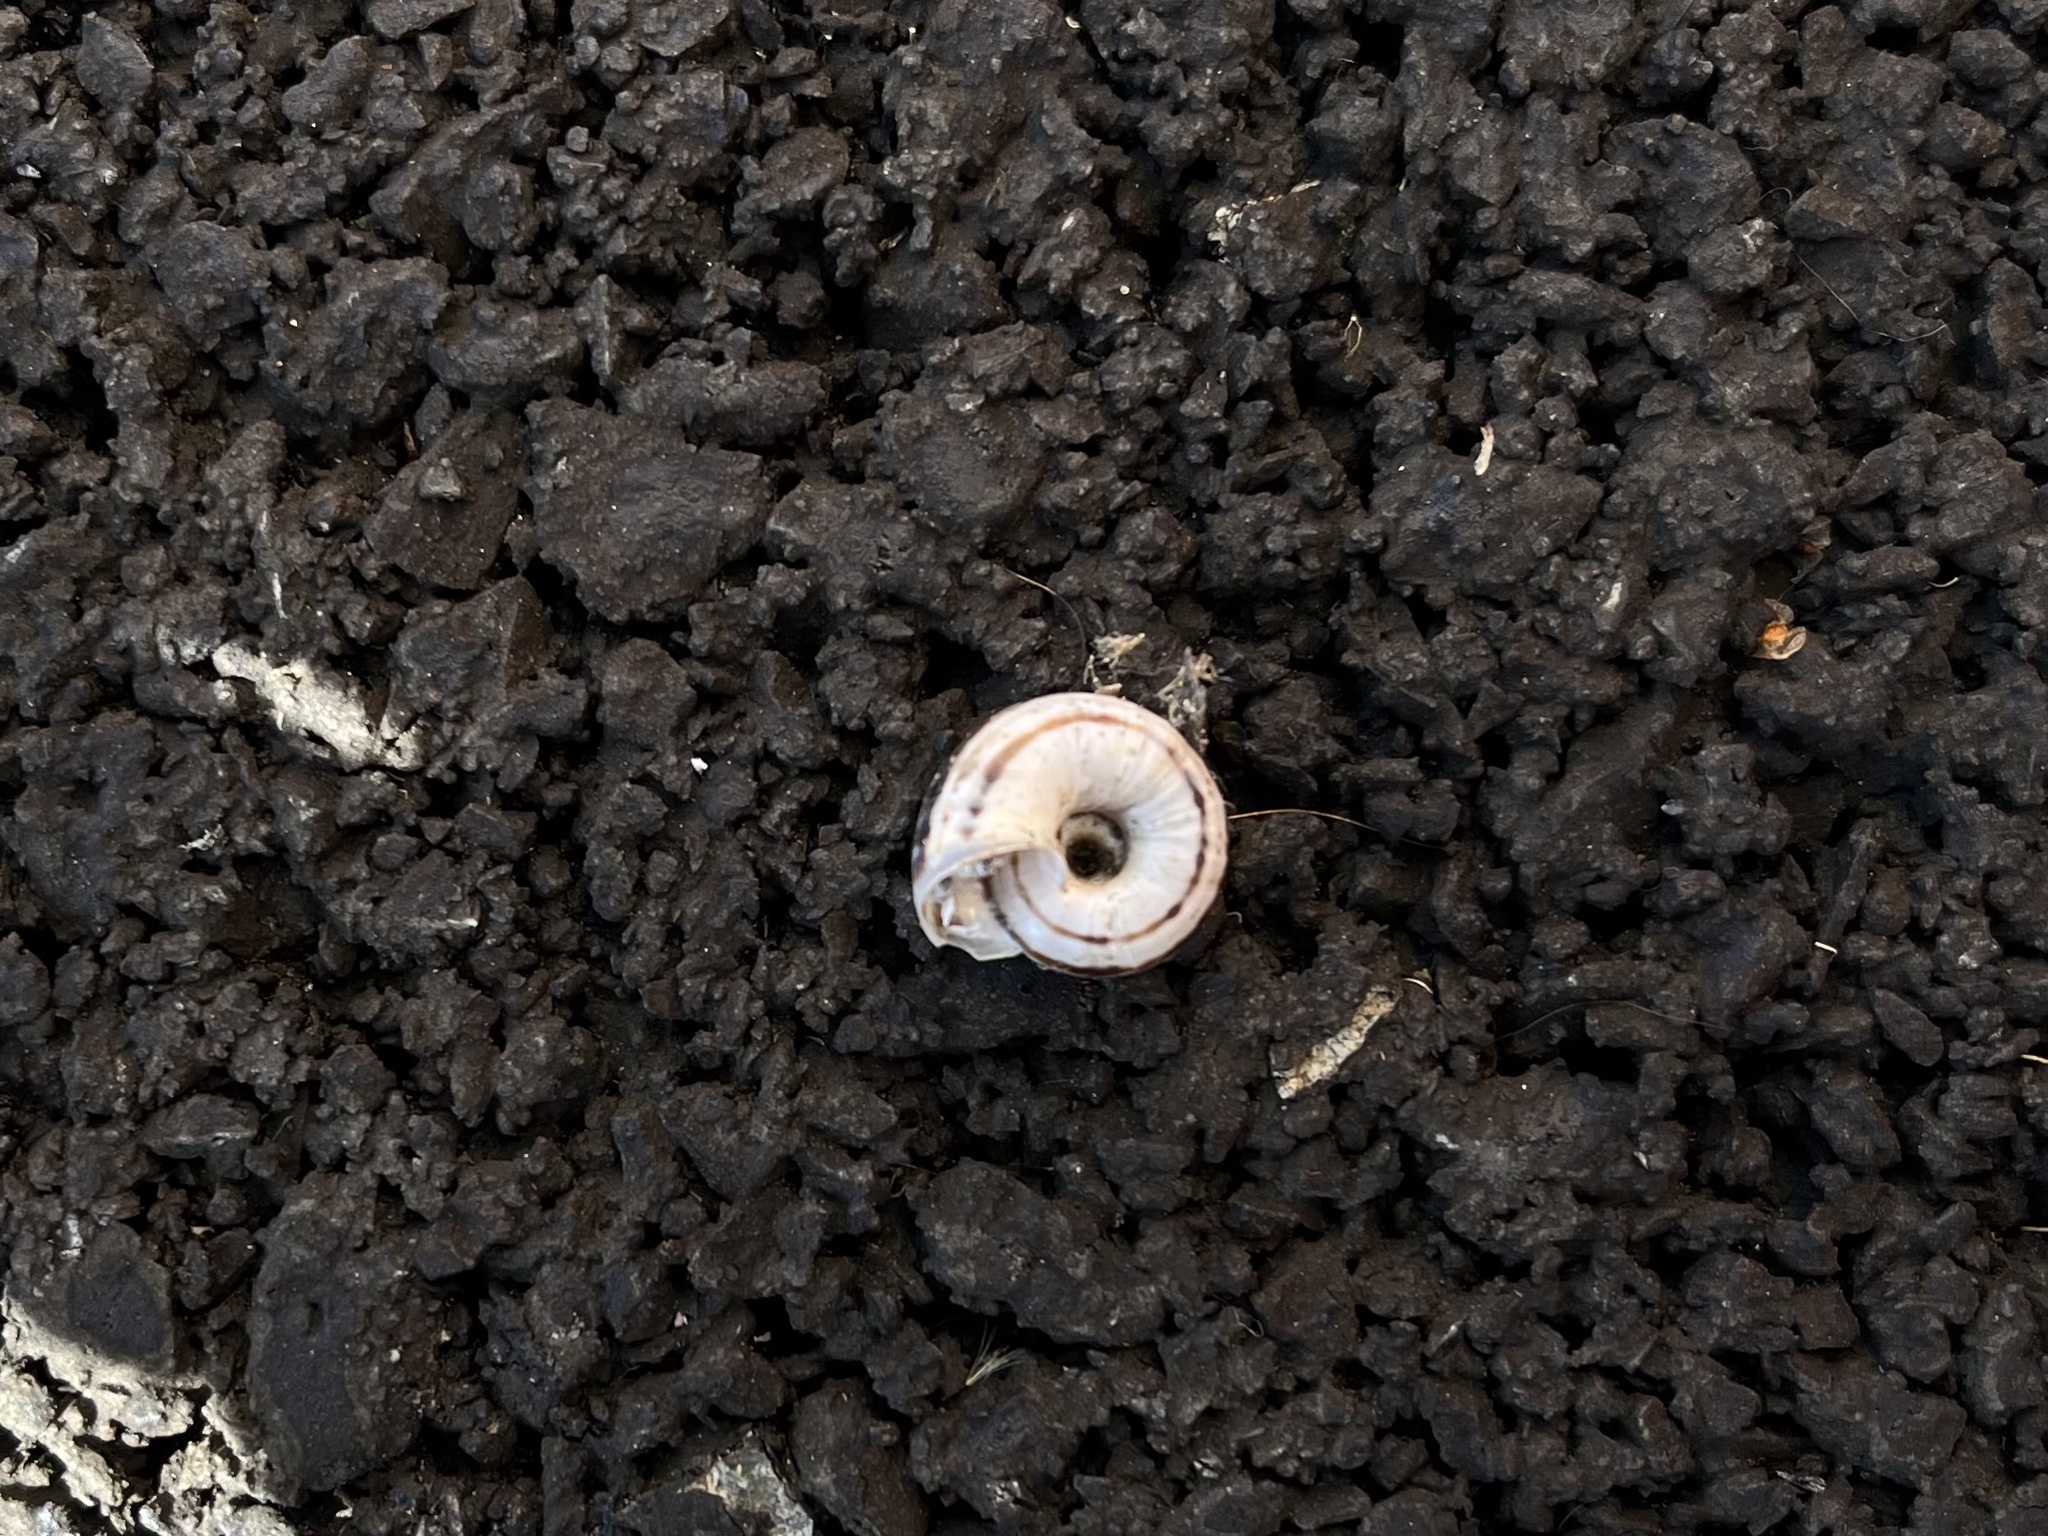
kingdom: Animalia
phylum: Mollusca
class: Gastropoda
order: Stylommatophora
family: Geomitridae
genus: Xerolenta
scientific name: Xerolenta obvia
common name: White heath snail
